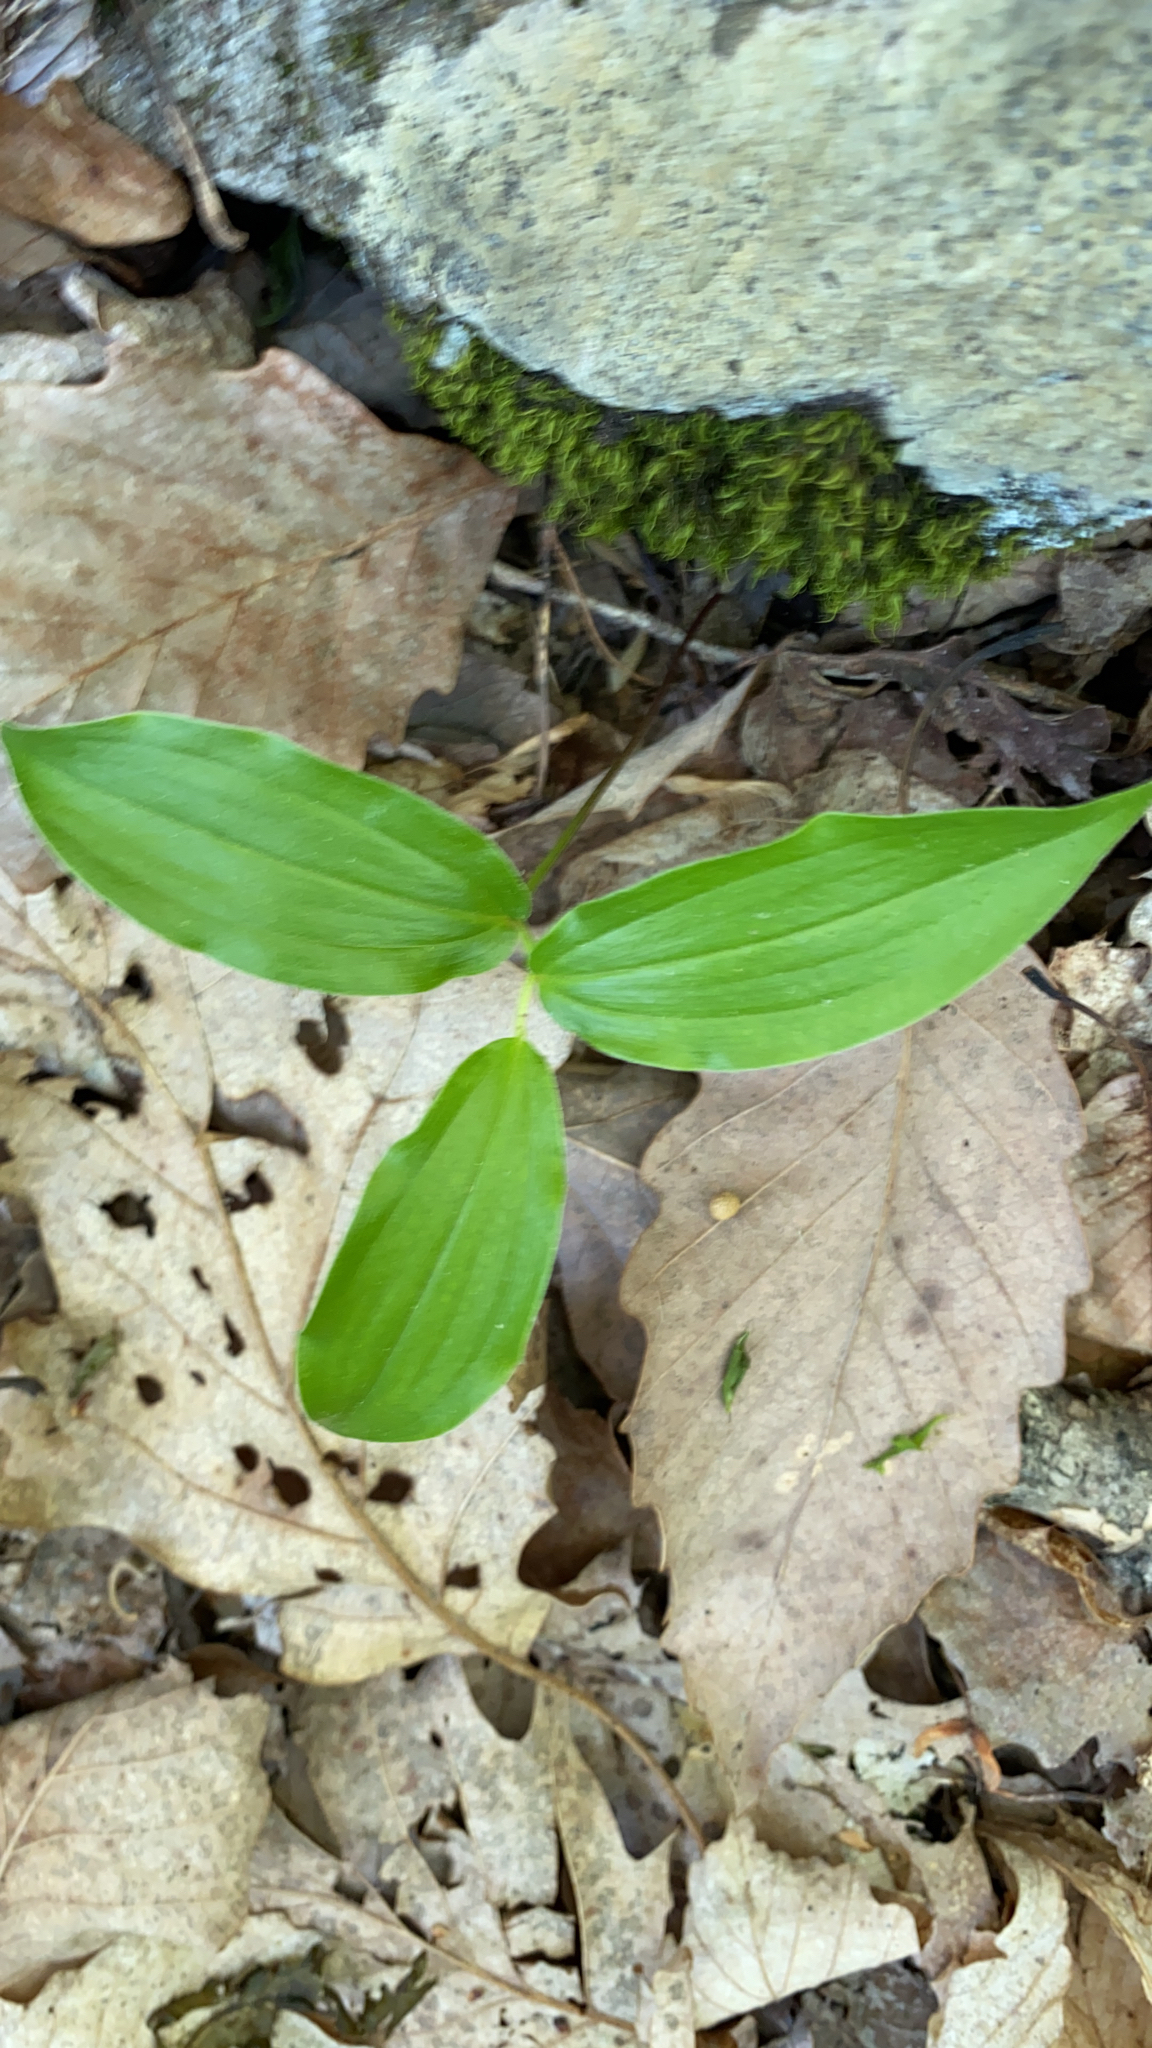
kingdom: Plantae
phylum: Tracheophyta
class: Liliopsida
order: Asparagales
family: Asparagaceae
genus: Maianthemum
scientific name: Maianthemum racemosum
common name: False spikenard
